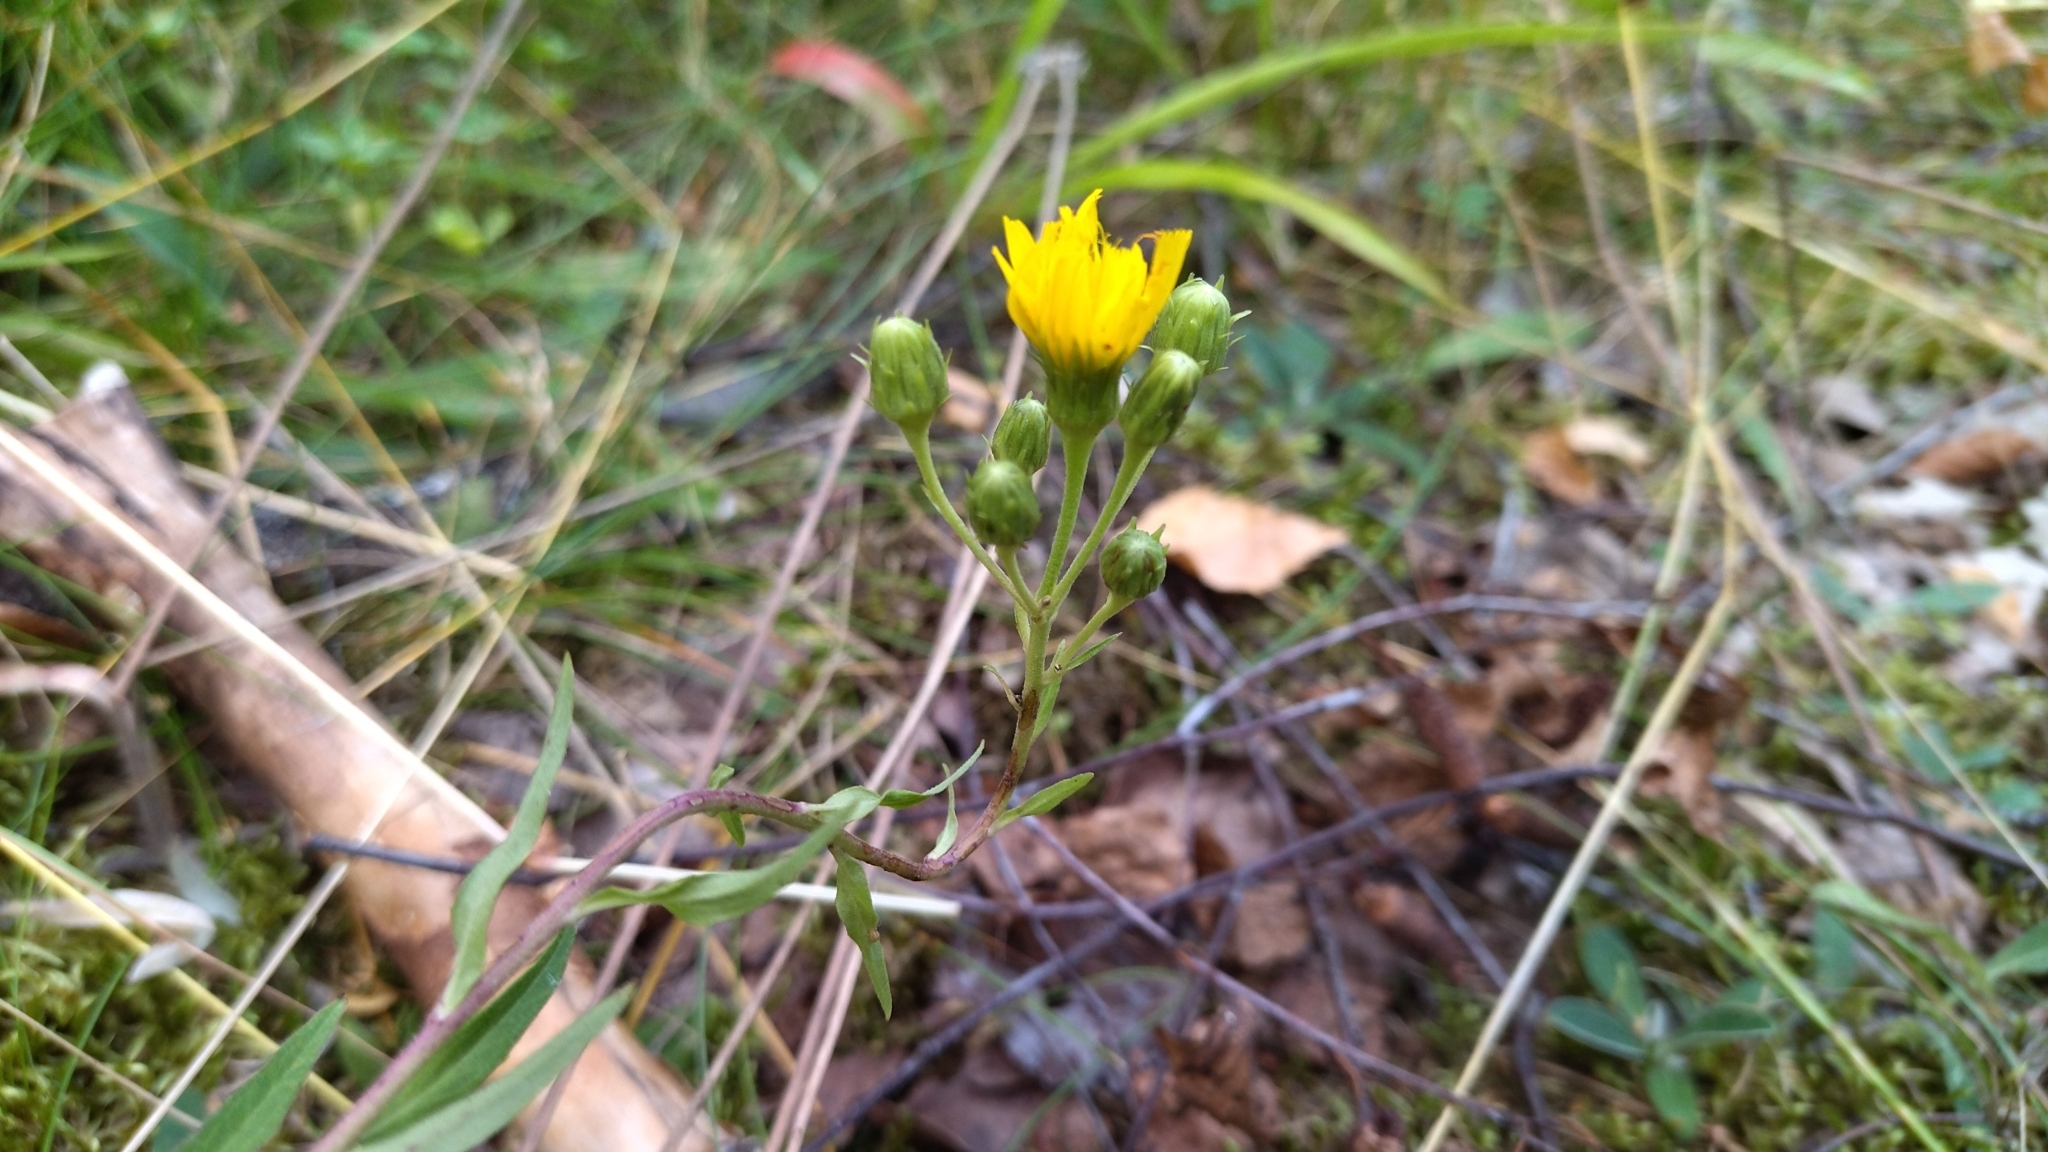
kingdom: Plantae
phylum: Tracheophyta
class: Magnoliopsida
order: Asterales
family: Asteraceae
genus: Hieracium
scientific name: Hieracium umbellatum
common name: Northern hawkweed
